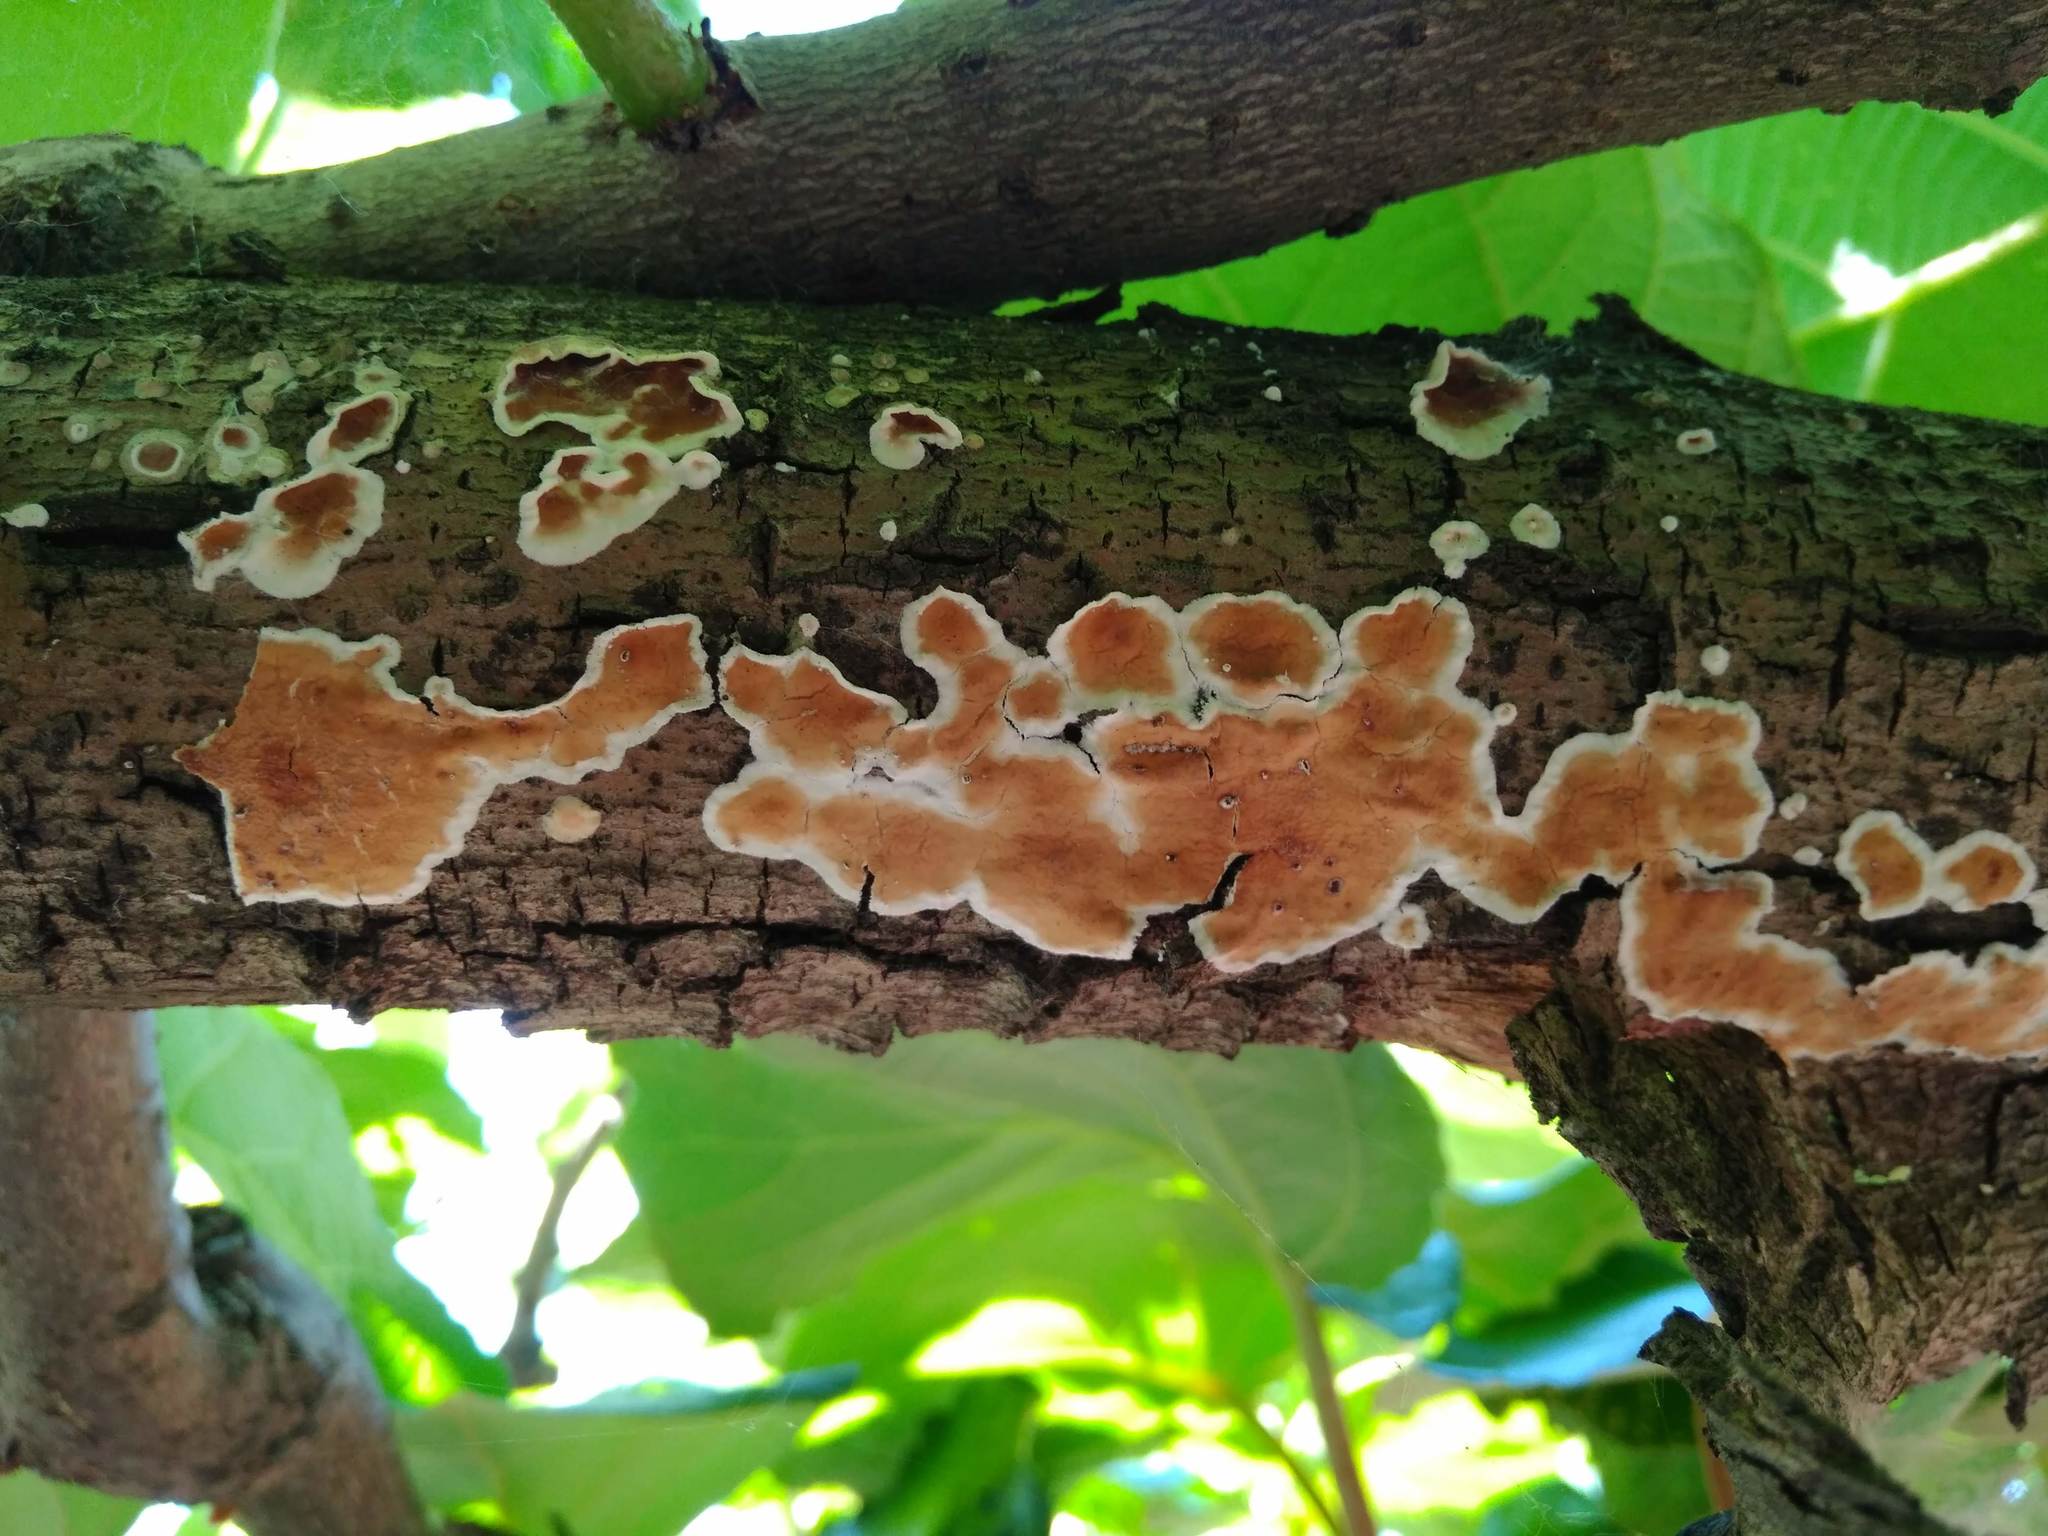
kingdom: Fungi
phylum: Basidiomycota
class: Agaricomycetes
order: Polyporales
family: Irpicaceae
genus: Byssomerulius
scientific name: Byssomerulius corium
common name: Netted crust
